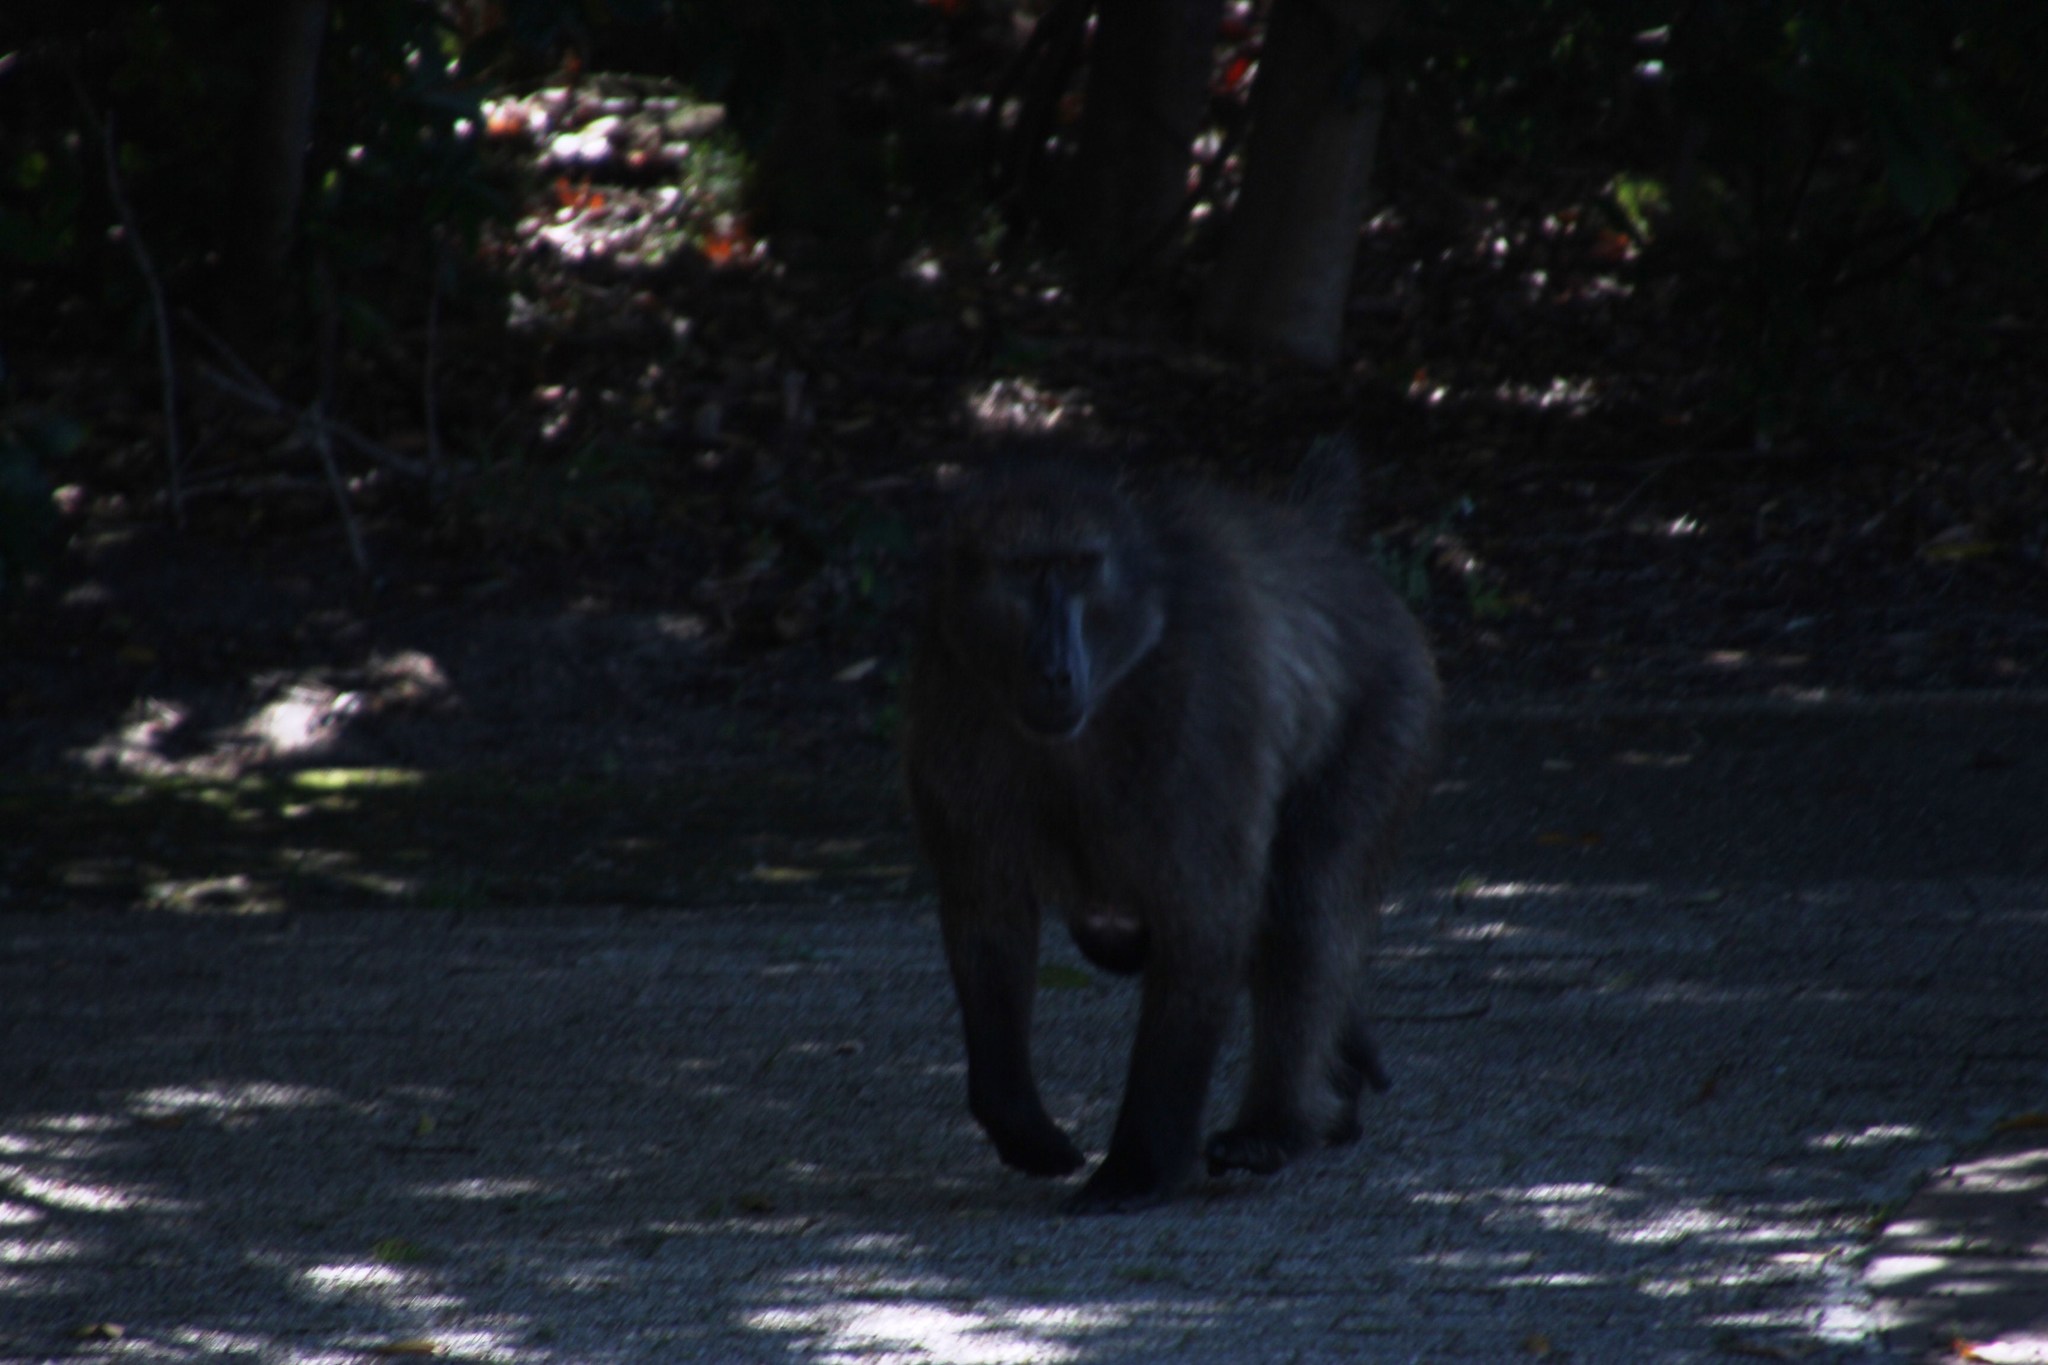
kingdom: Animalia
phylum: Chordata
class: Mammalia
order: Primates
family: Cercopithecidae
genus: Papio
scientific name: Papio ursinus
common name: Chacma baboon
